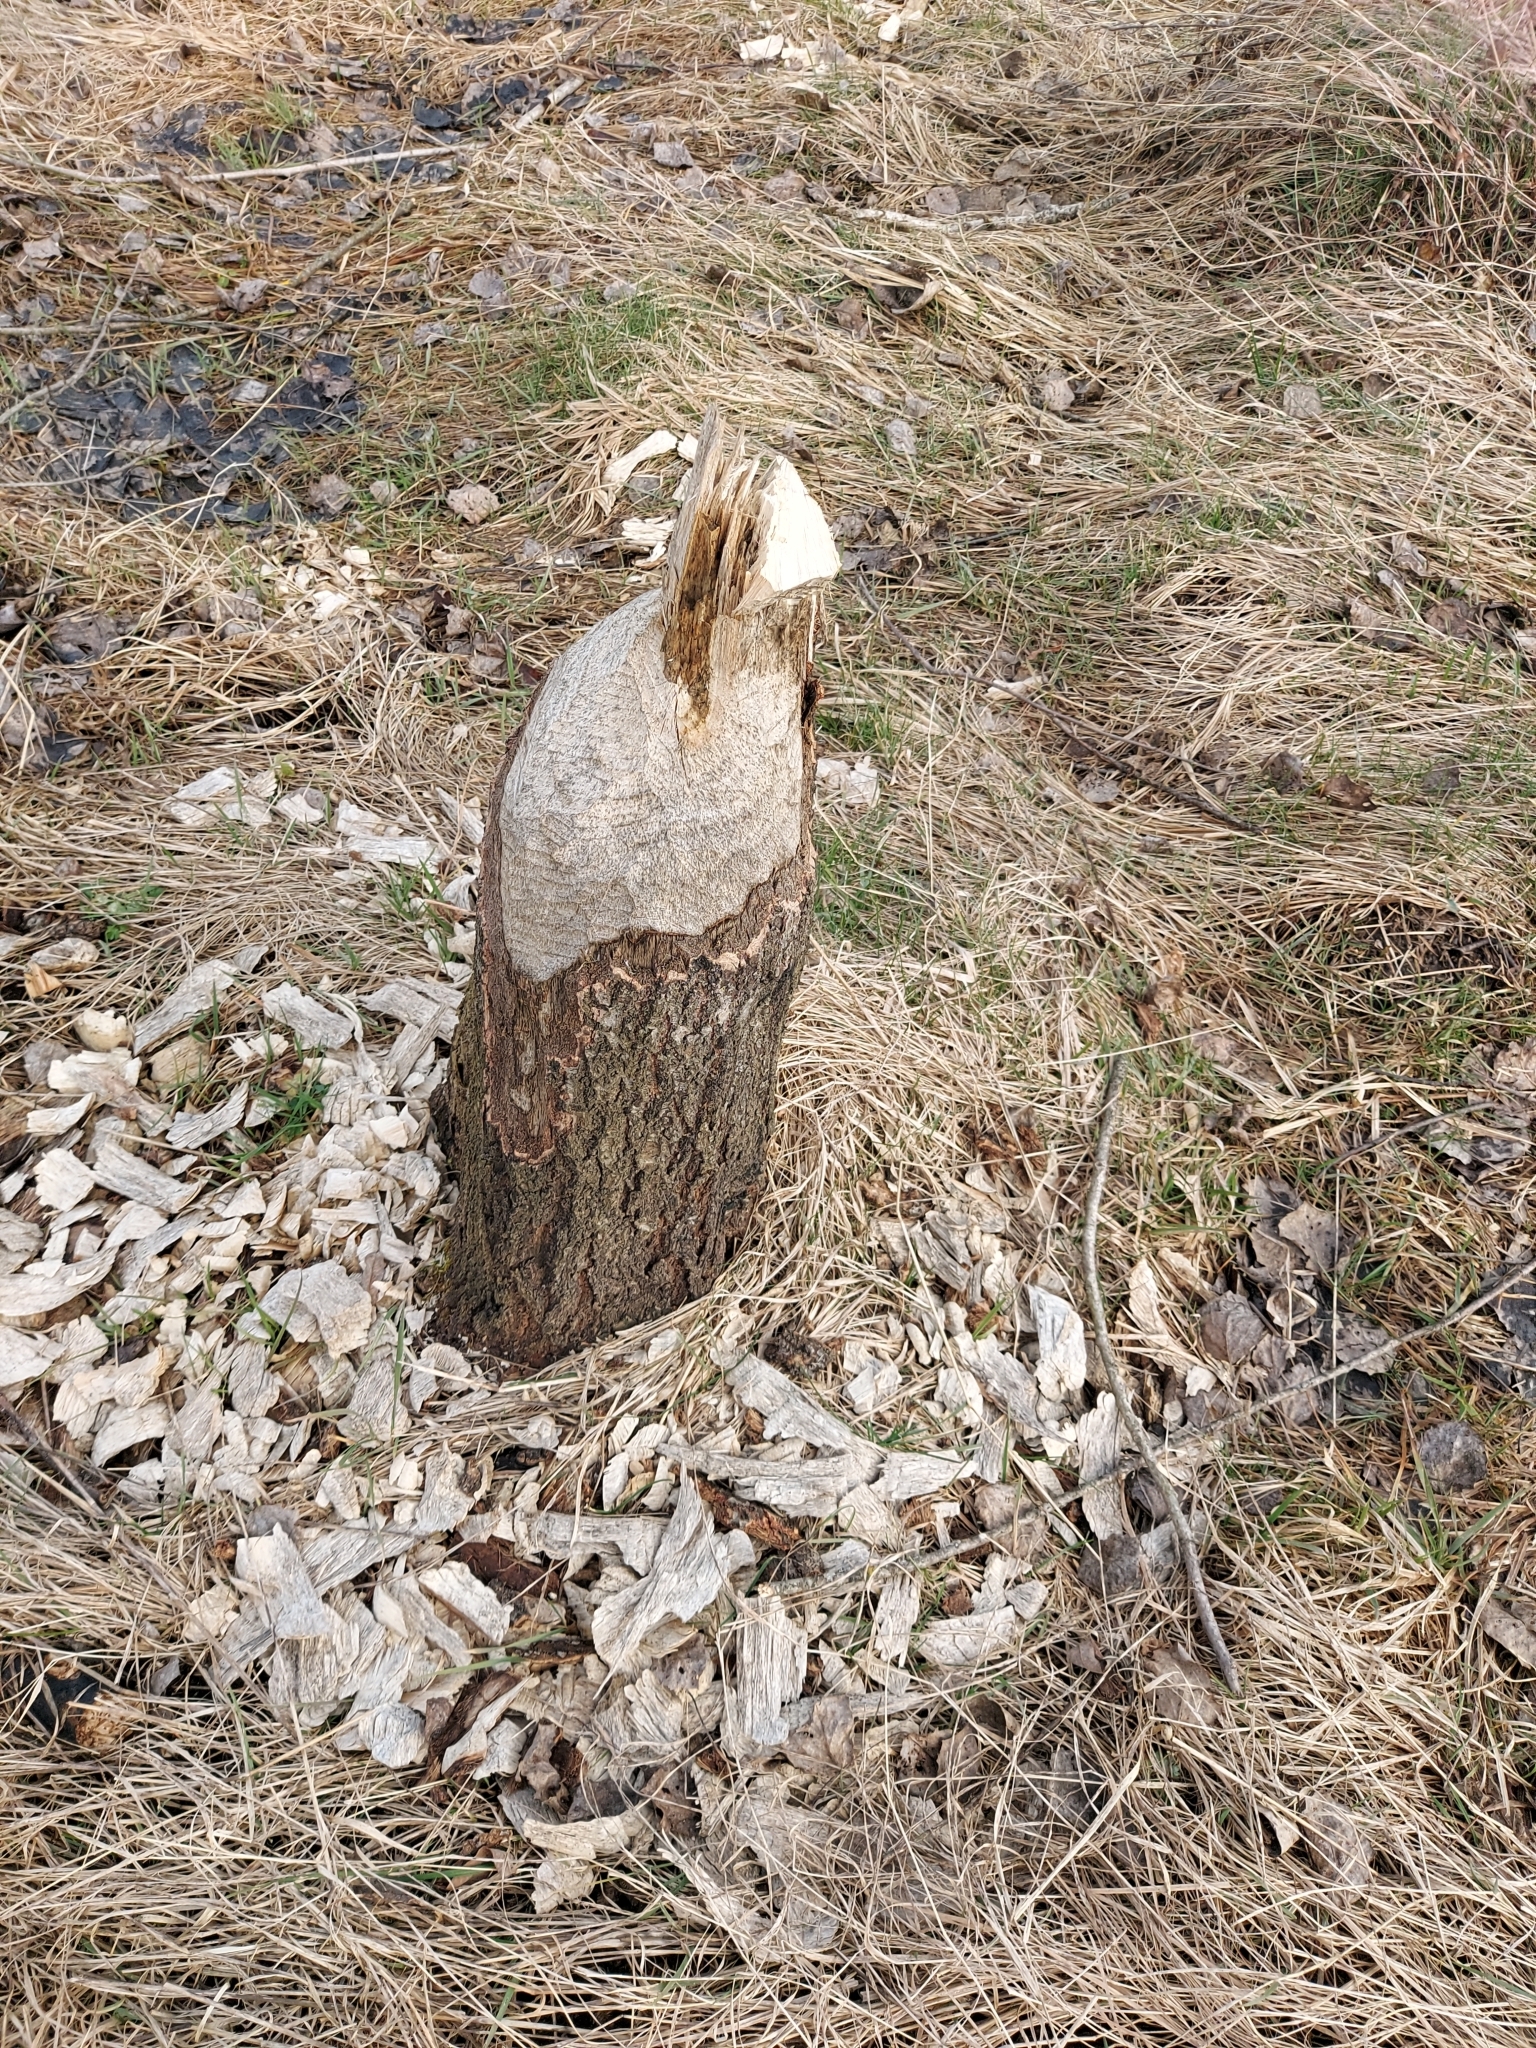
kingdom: Animalia
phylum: Chordata
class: Mammalia
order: Rodentia
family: Castoridae
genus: Castor
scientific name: Castor fiber
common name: Eurasian beaver
